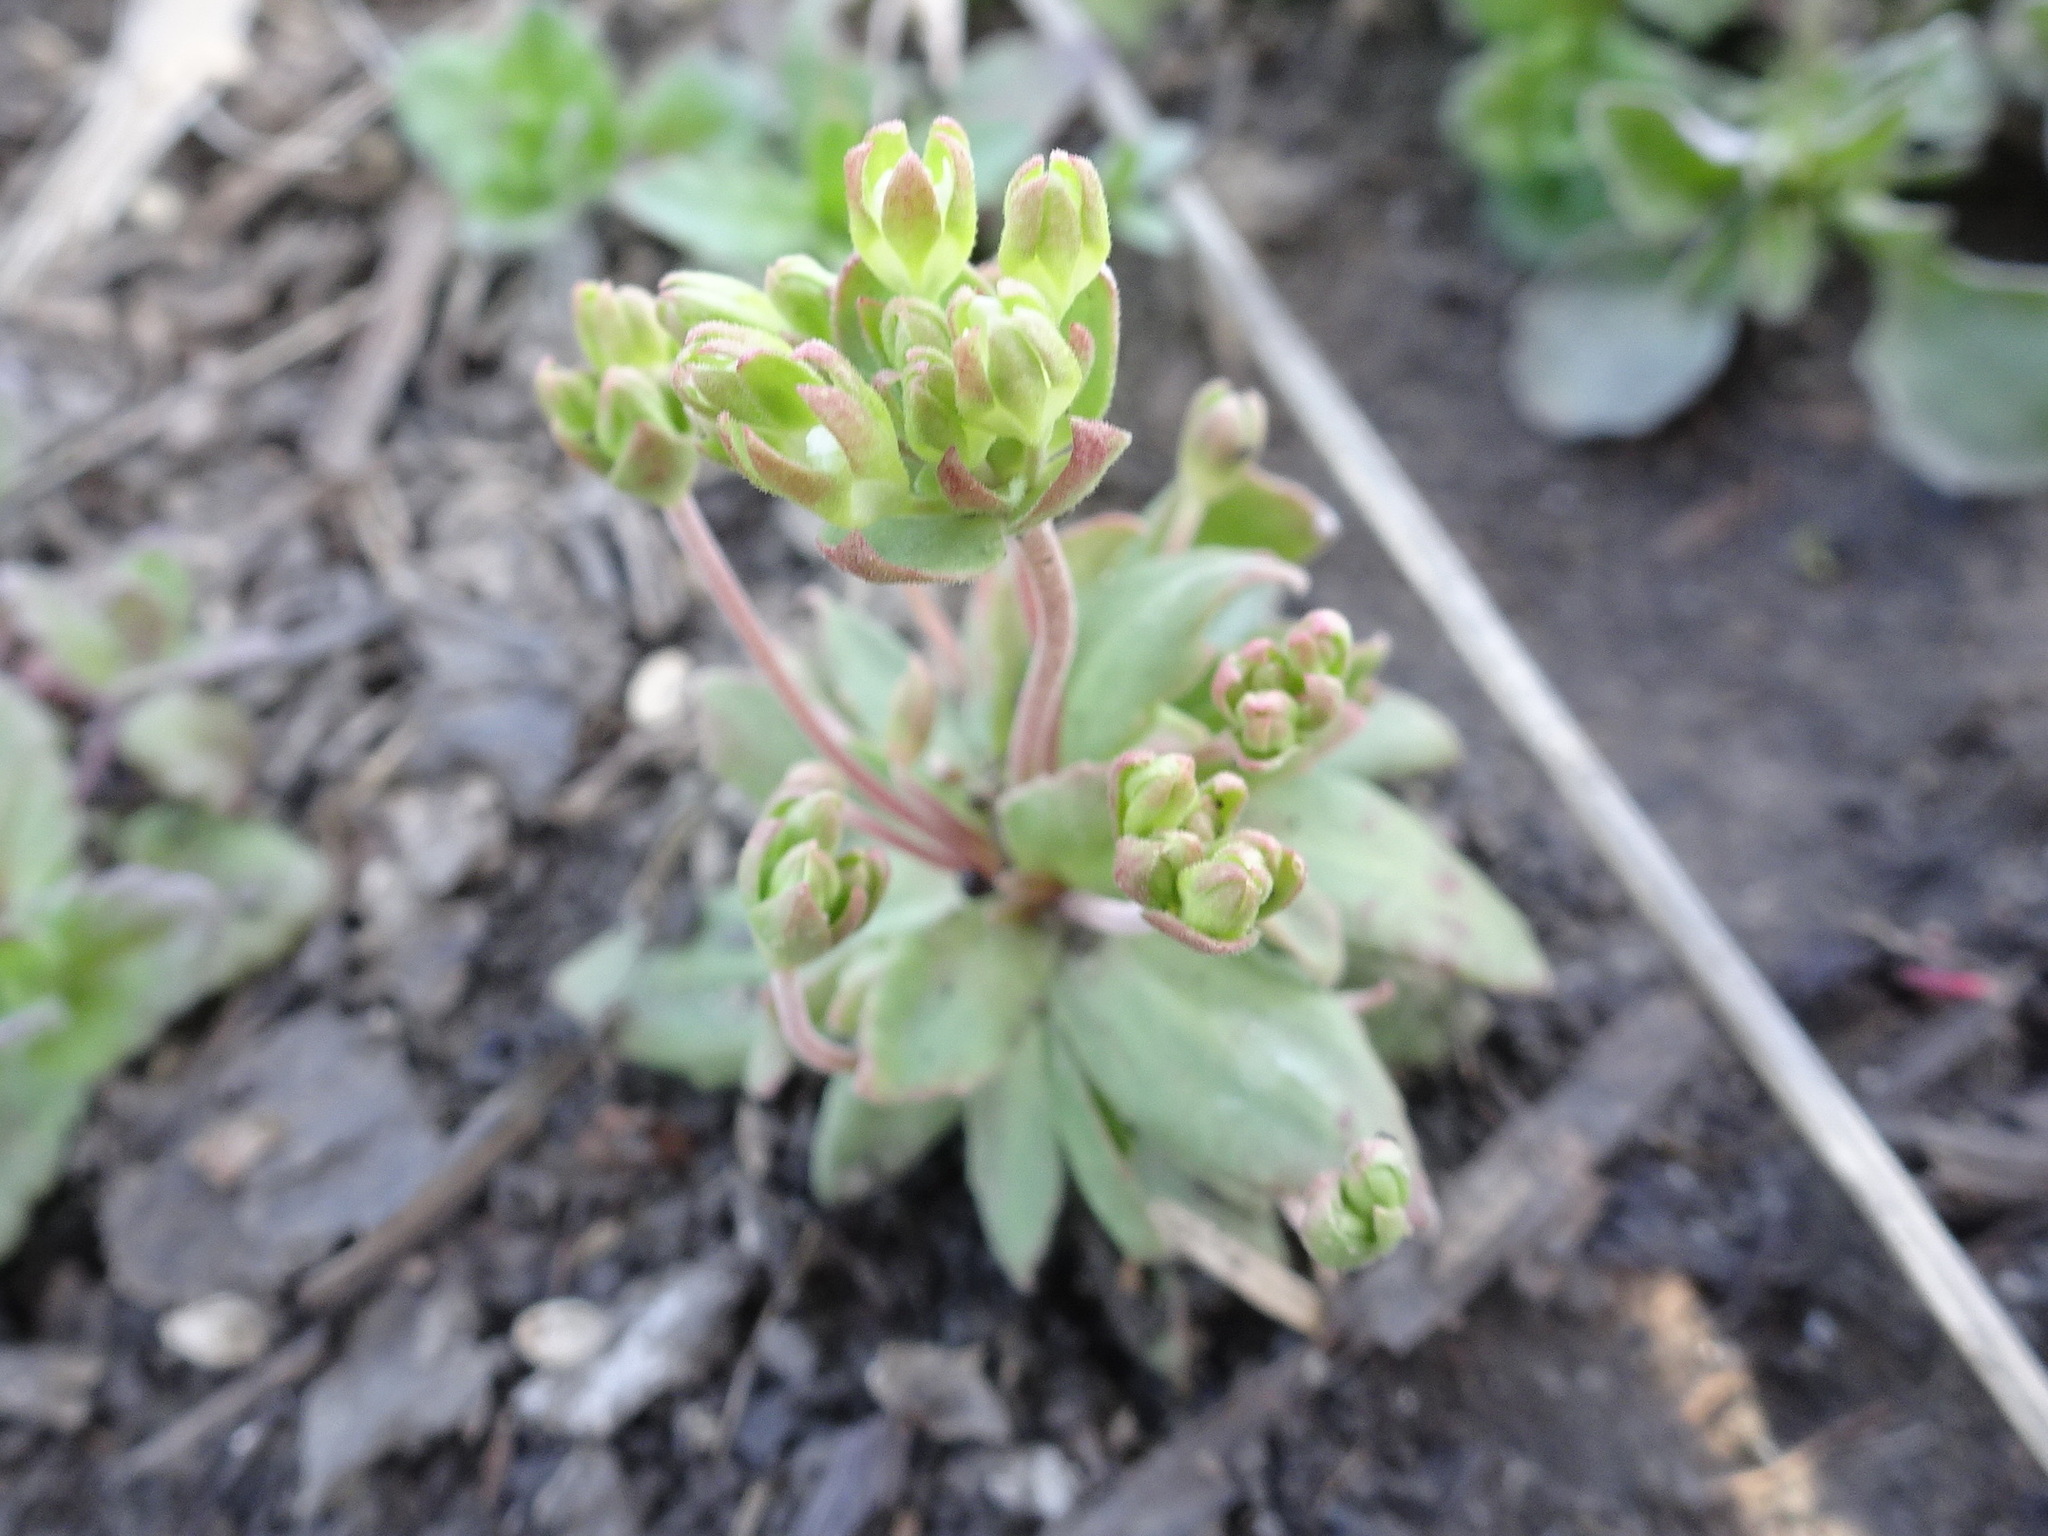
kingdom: Plantae
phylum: Tracheophyta
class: Magnoliopsida
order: Ericales
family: Primulaceae
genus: Androsace
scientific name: Androsace occidentalis
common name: West rock-jasmine
